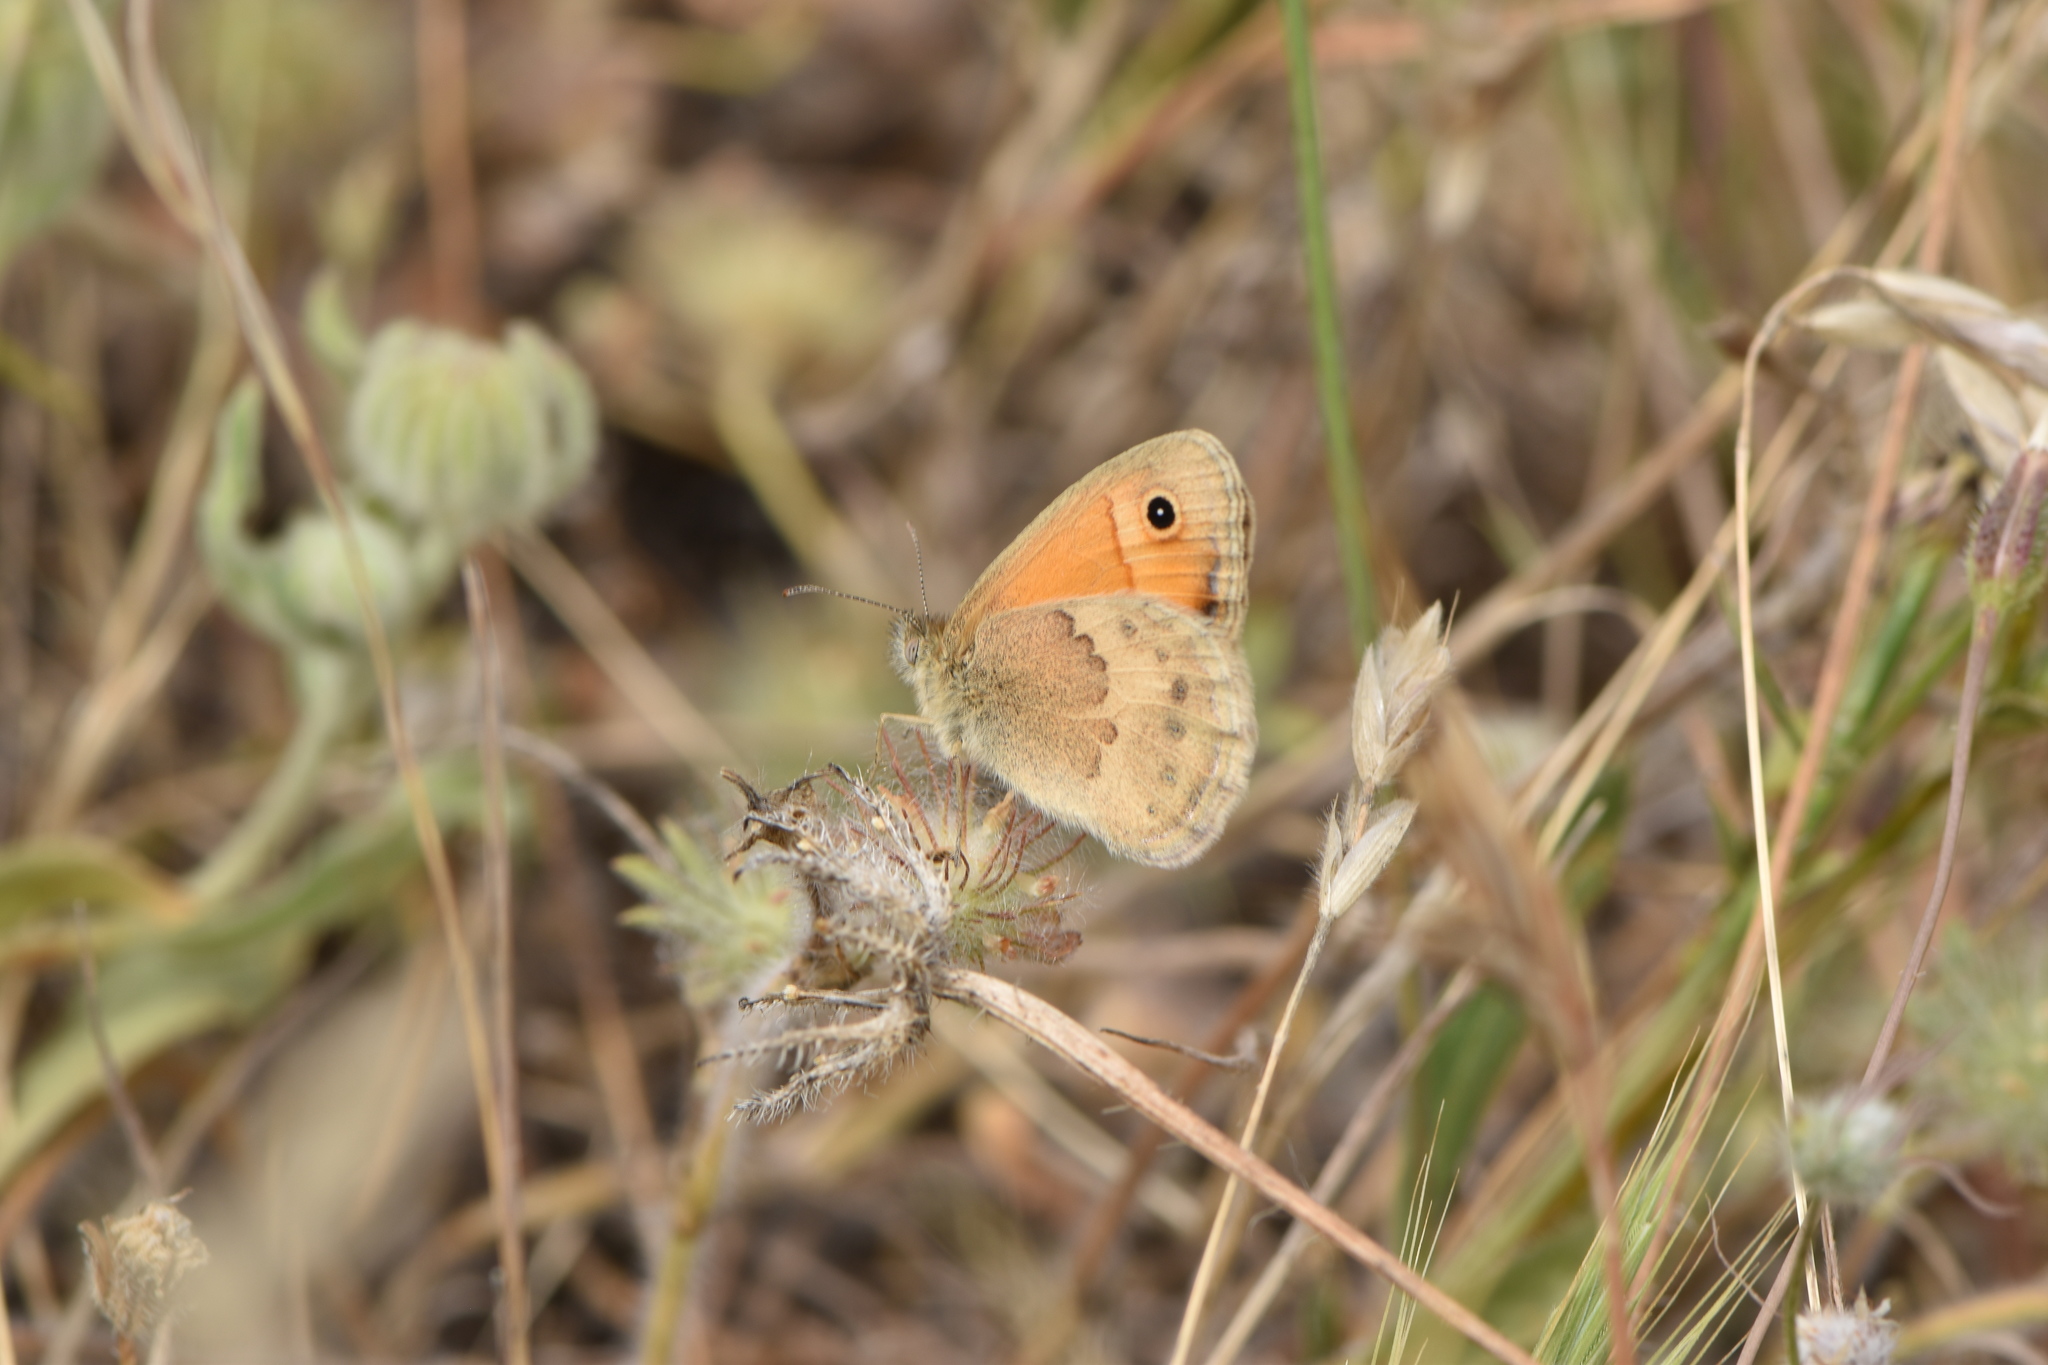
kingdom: Animalia
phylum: Arthropoda
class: Insecta
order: Lepidoptera
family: Nymphalidae
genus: Coenonympha
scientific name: Coenonympha pamphilus
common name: Small heath
